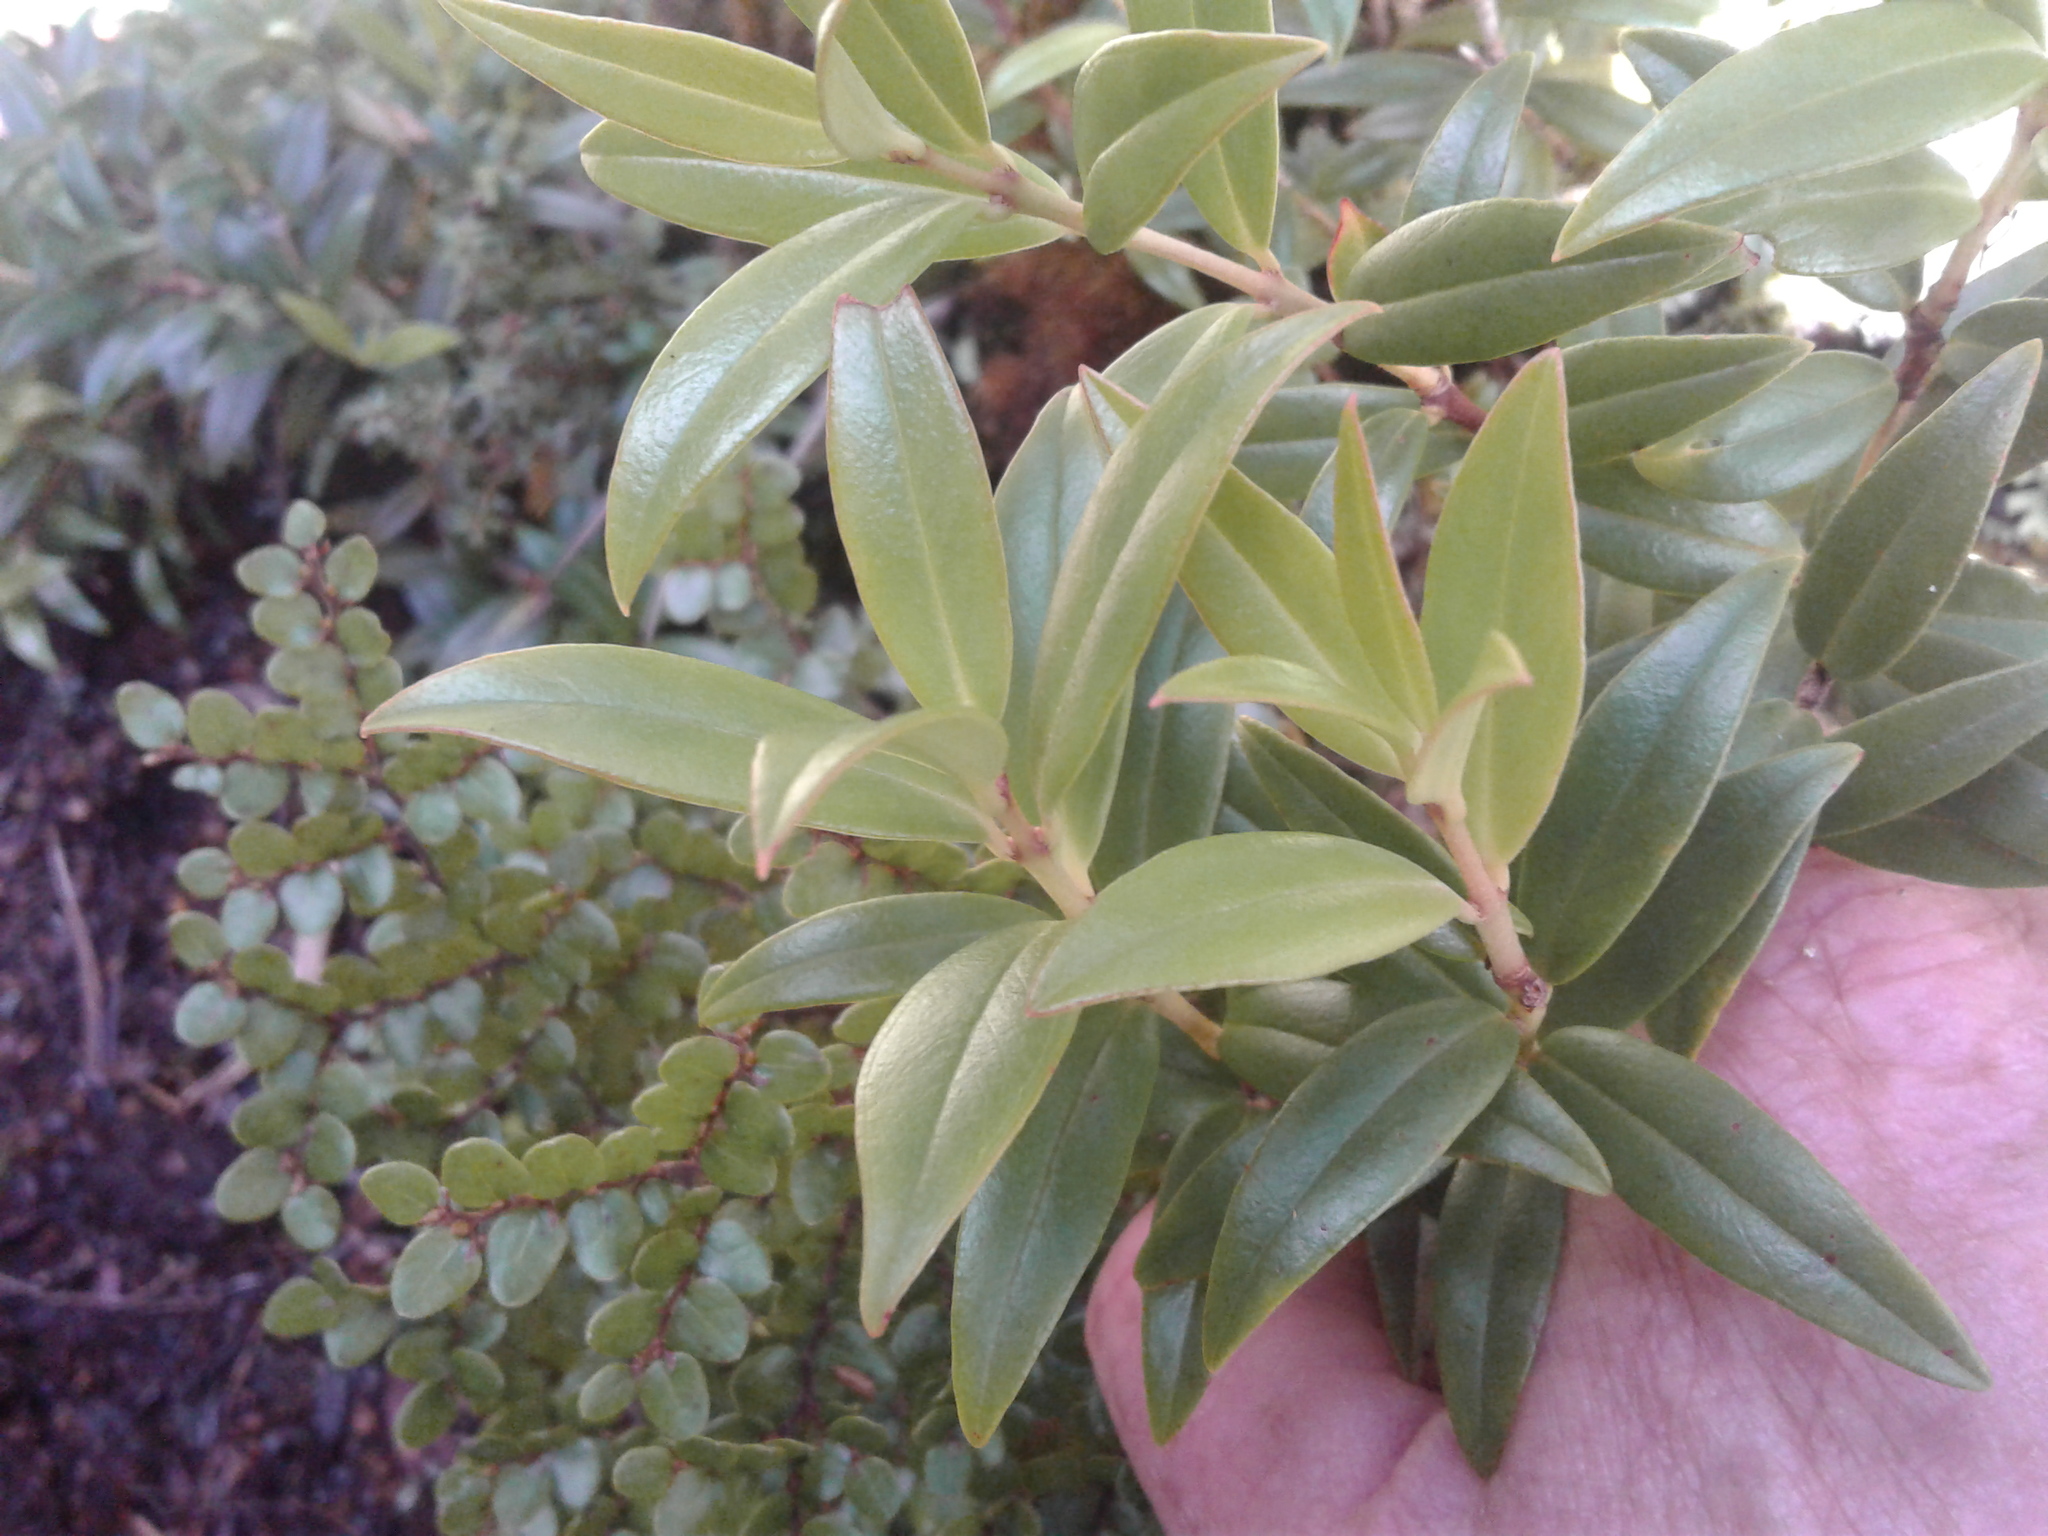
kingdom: Plantae
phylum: Tracheophyta
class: Magnoliopsida
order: Myrtales
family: Myrtaceae
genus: Metrosideros
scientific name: Metrosideros umbellata
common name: Southern rata
